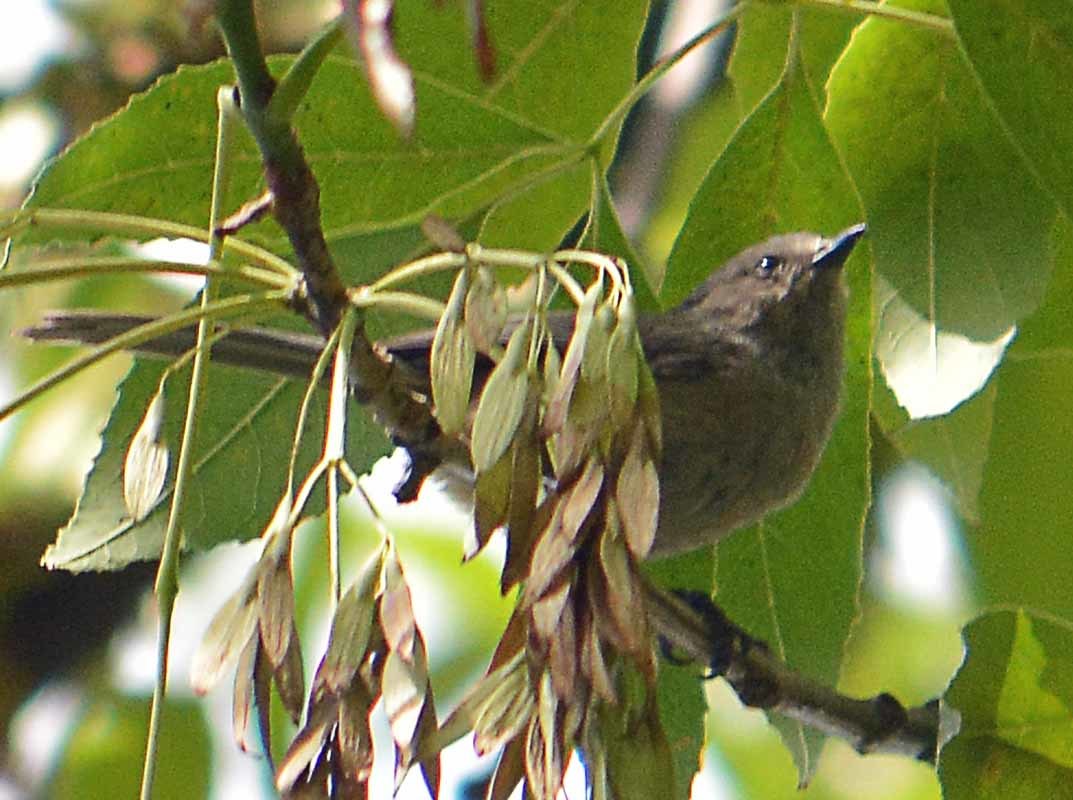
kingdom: Animalia
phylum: Chordata
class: Aves
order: Passeriformes
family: Aegithalidae
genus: Psaltriparus
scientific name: Psaltriparus minimus
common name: American bushtit
